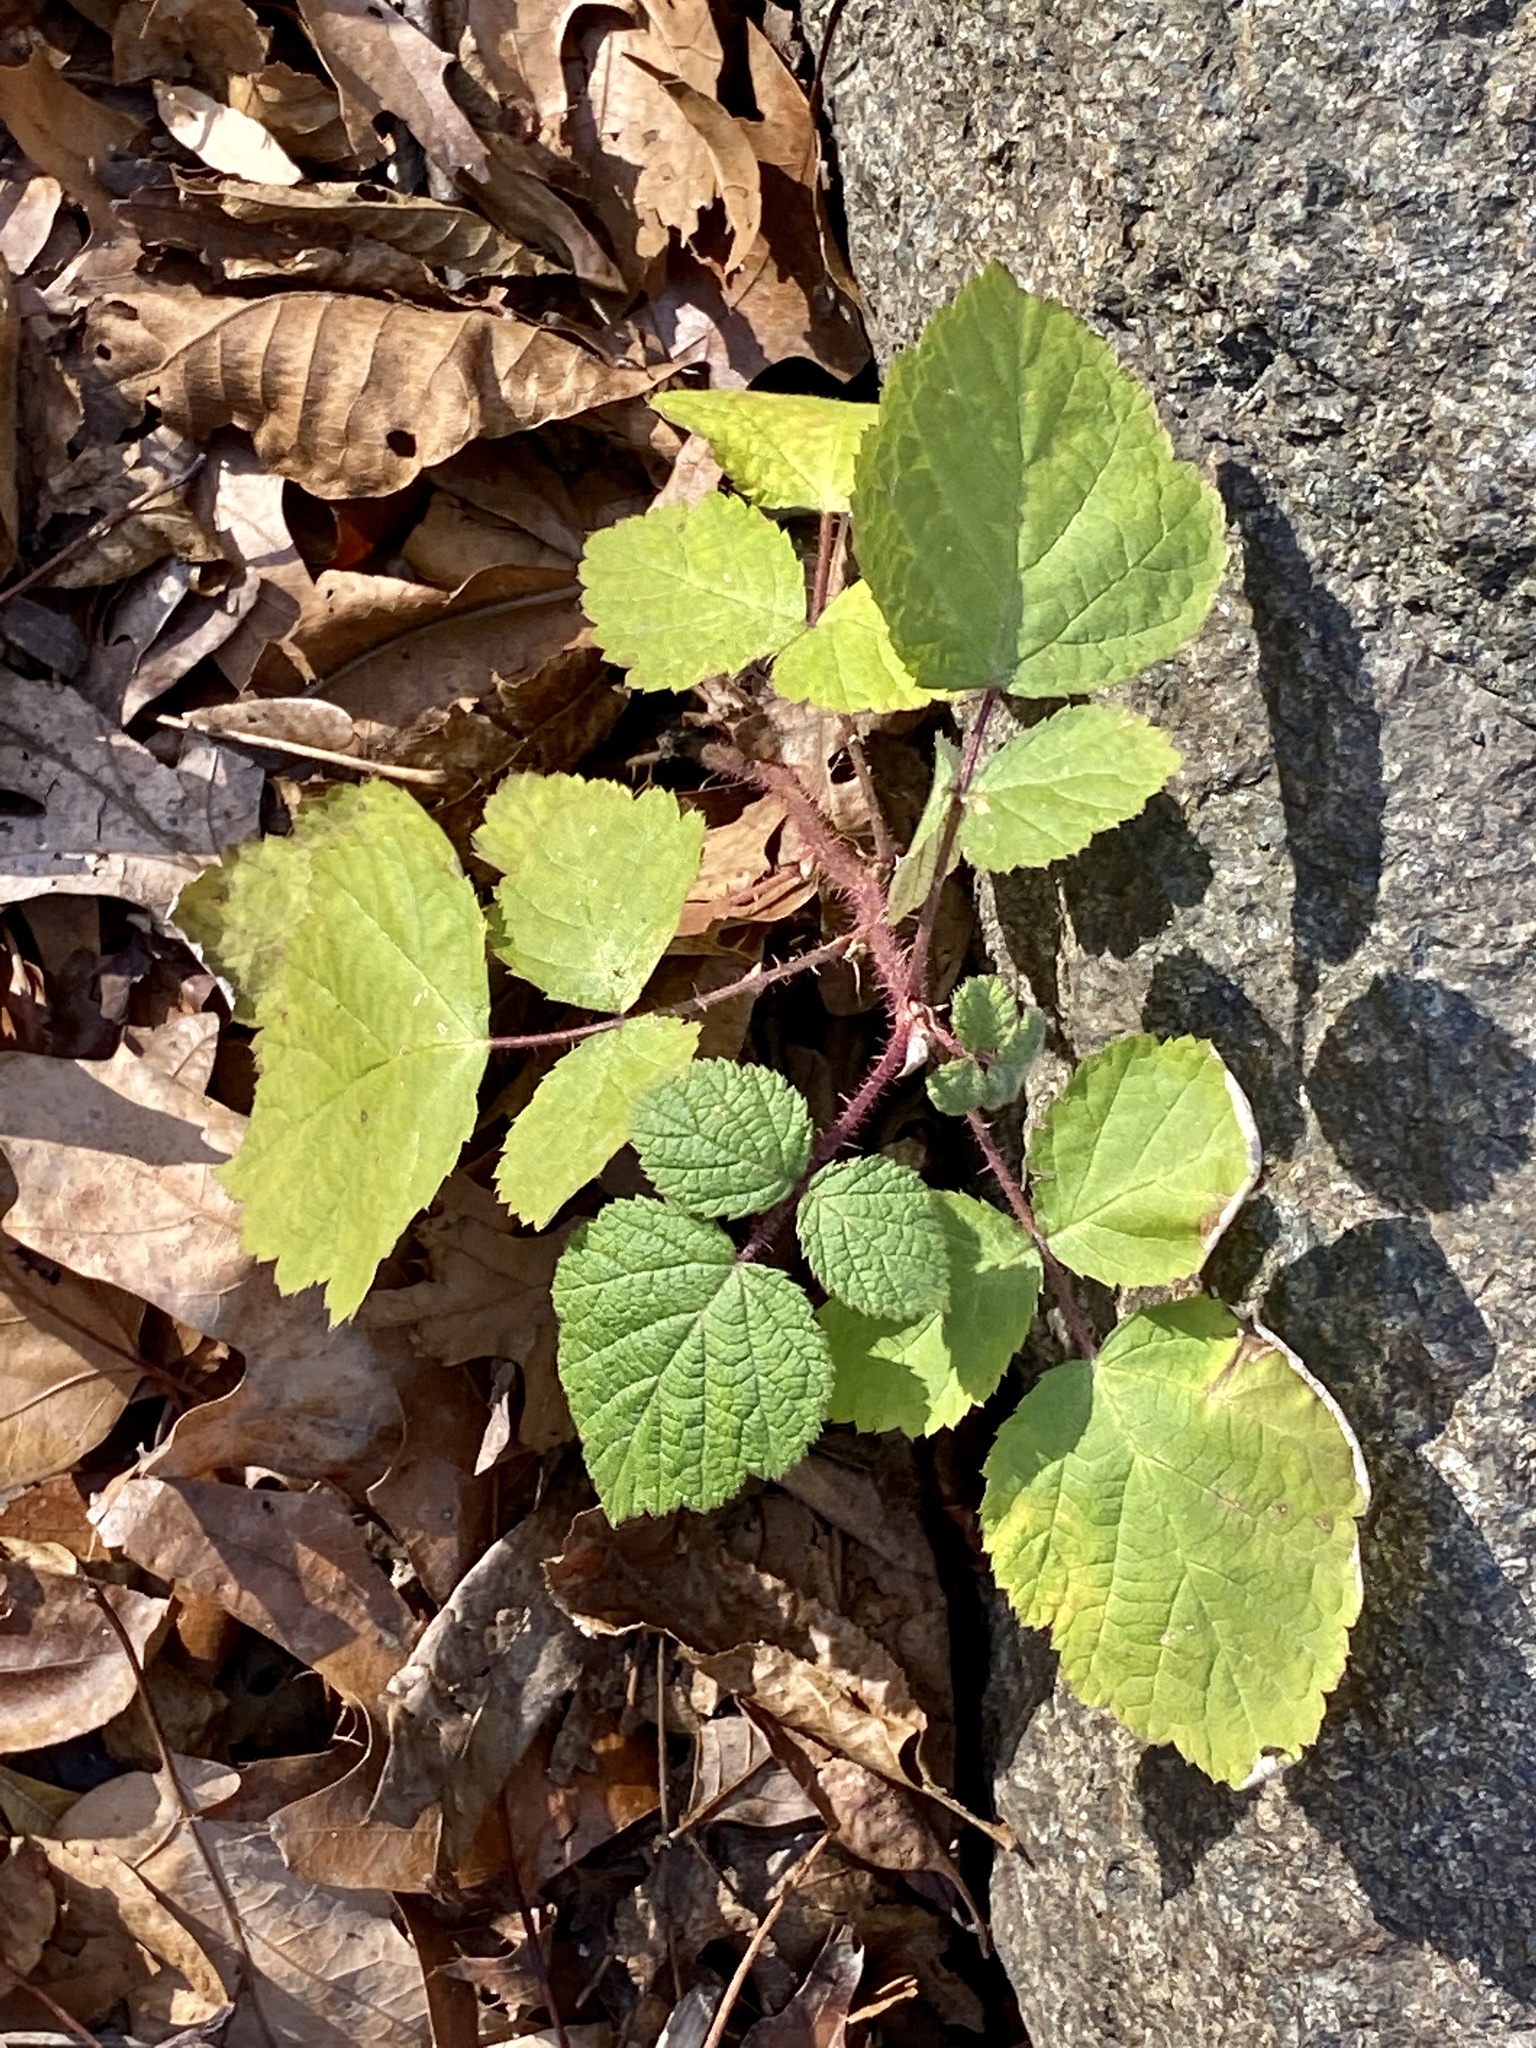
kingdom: Plantae
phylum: Tracheophyta
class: Magnoliopsida
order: Rosales
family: Rosaceae
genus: Rubus
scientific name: Rubus phoenicolasius
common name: Japanese wineberry
